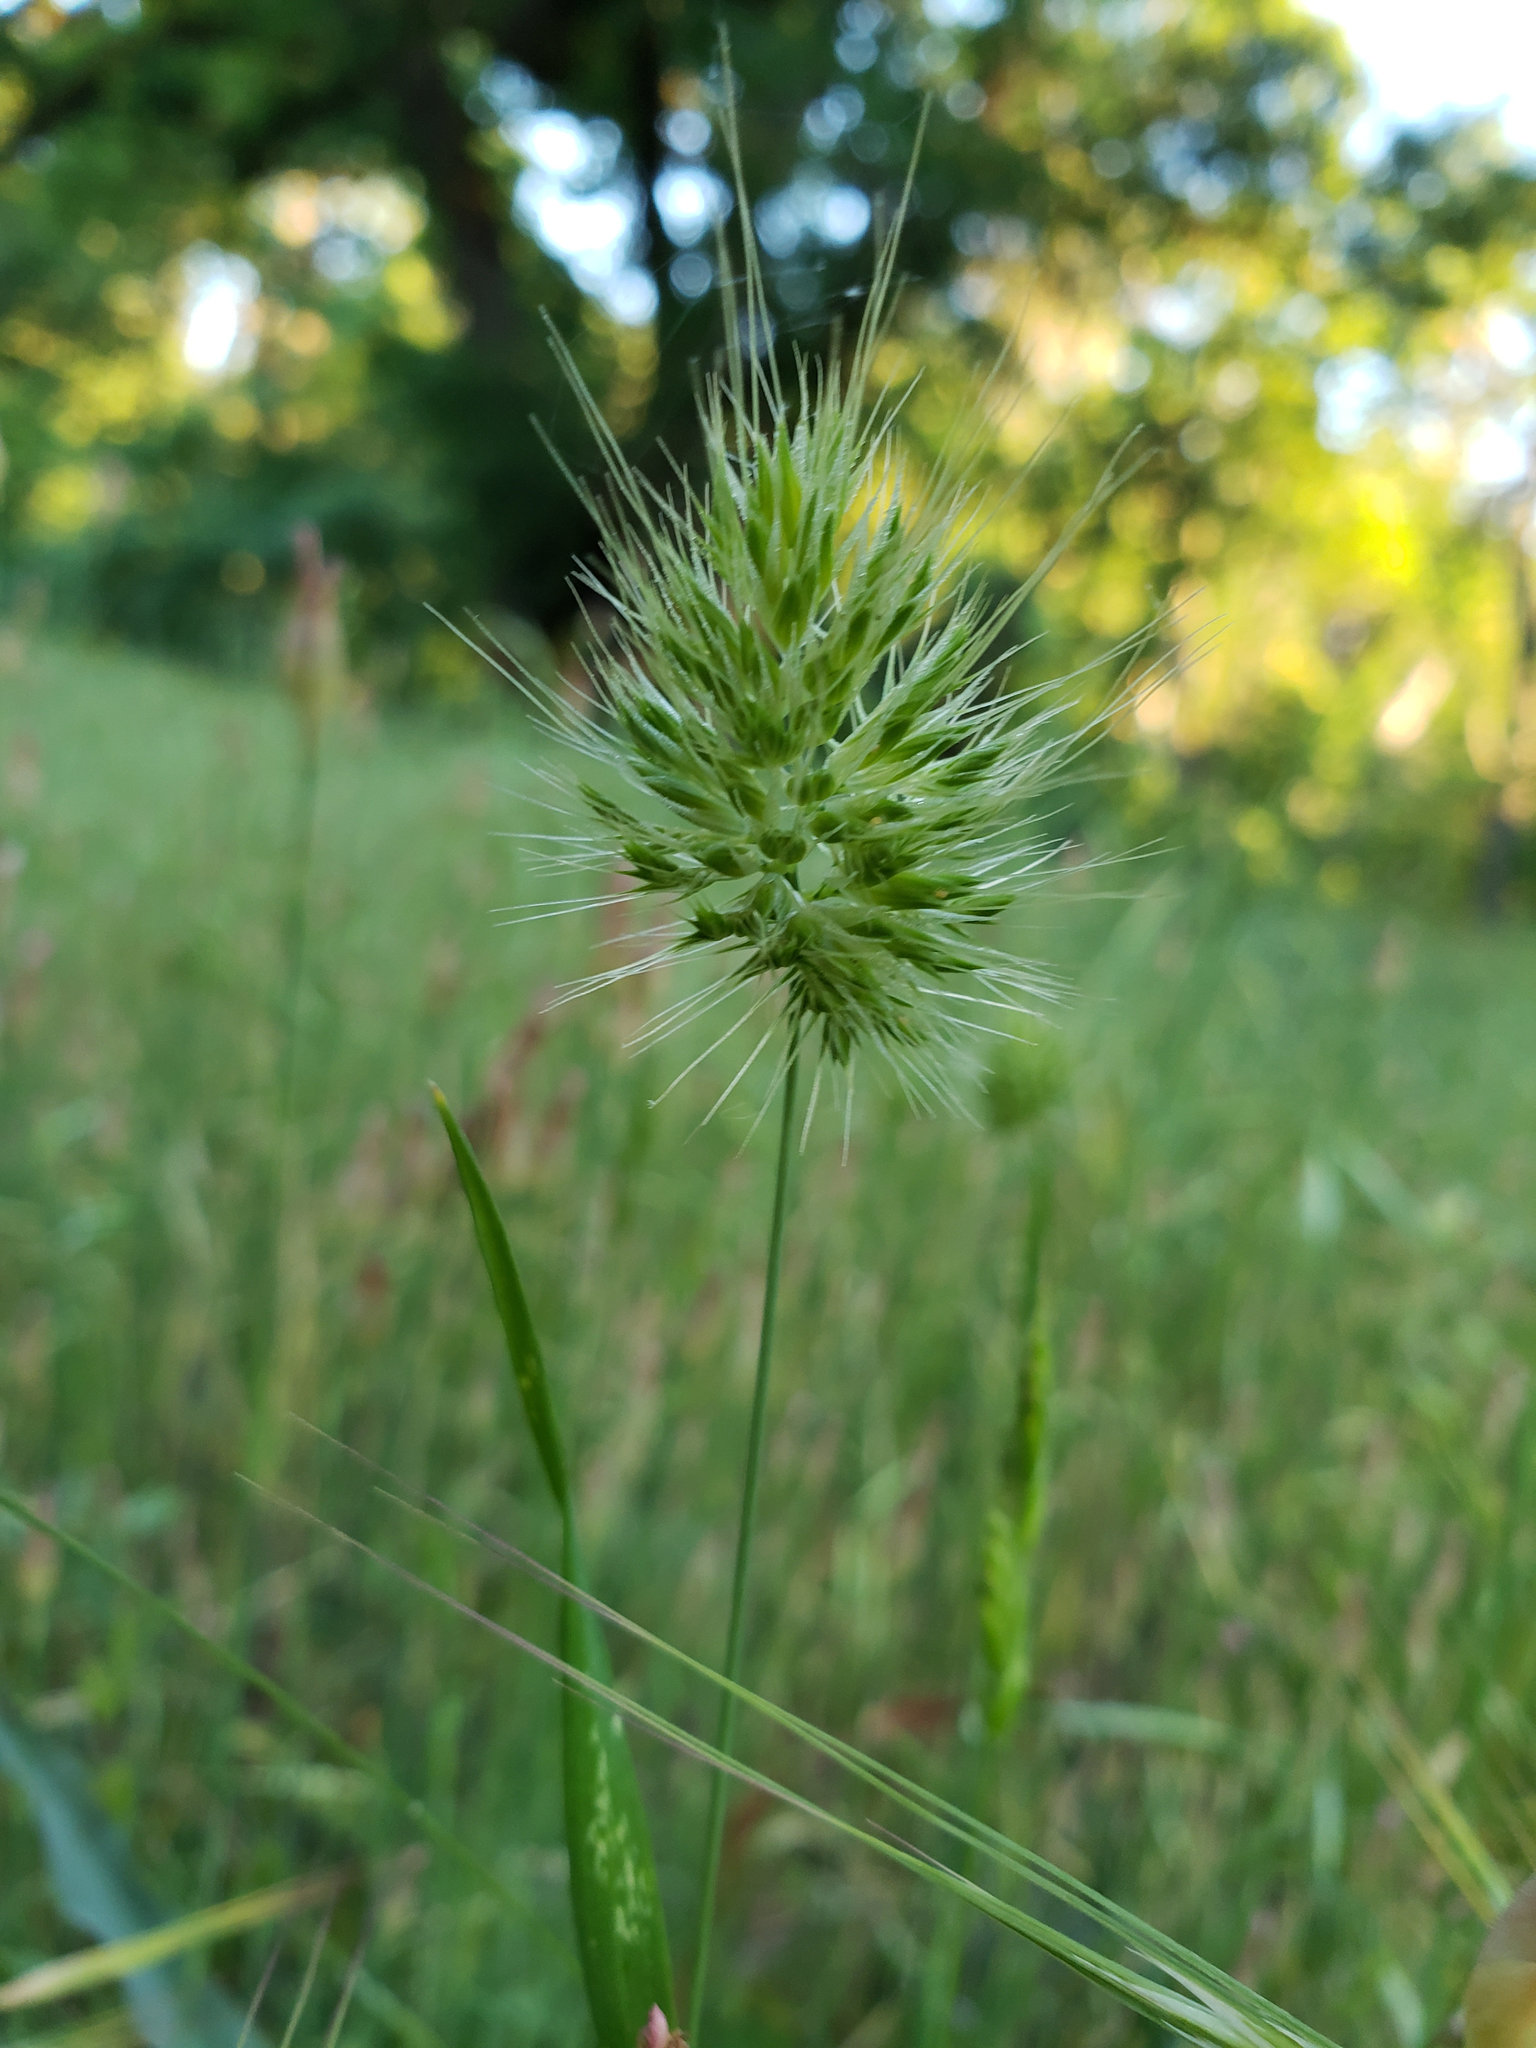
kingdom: Plantae
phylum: Tracheophyta
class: Liliopsida
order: Poales
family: Poaceae
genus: Cynosurus
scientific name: Cynosurus echinatus
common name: Rough dog's-tail
